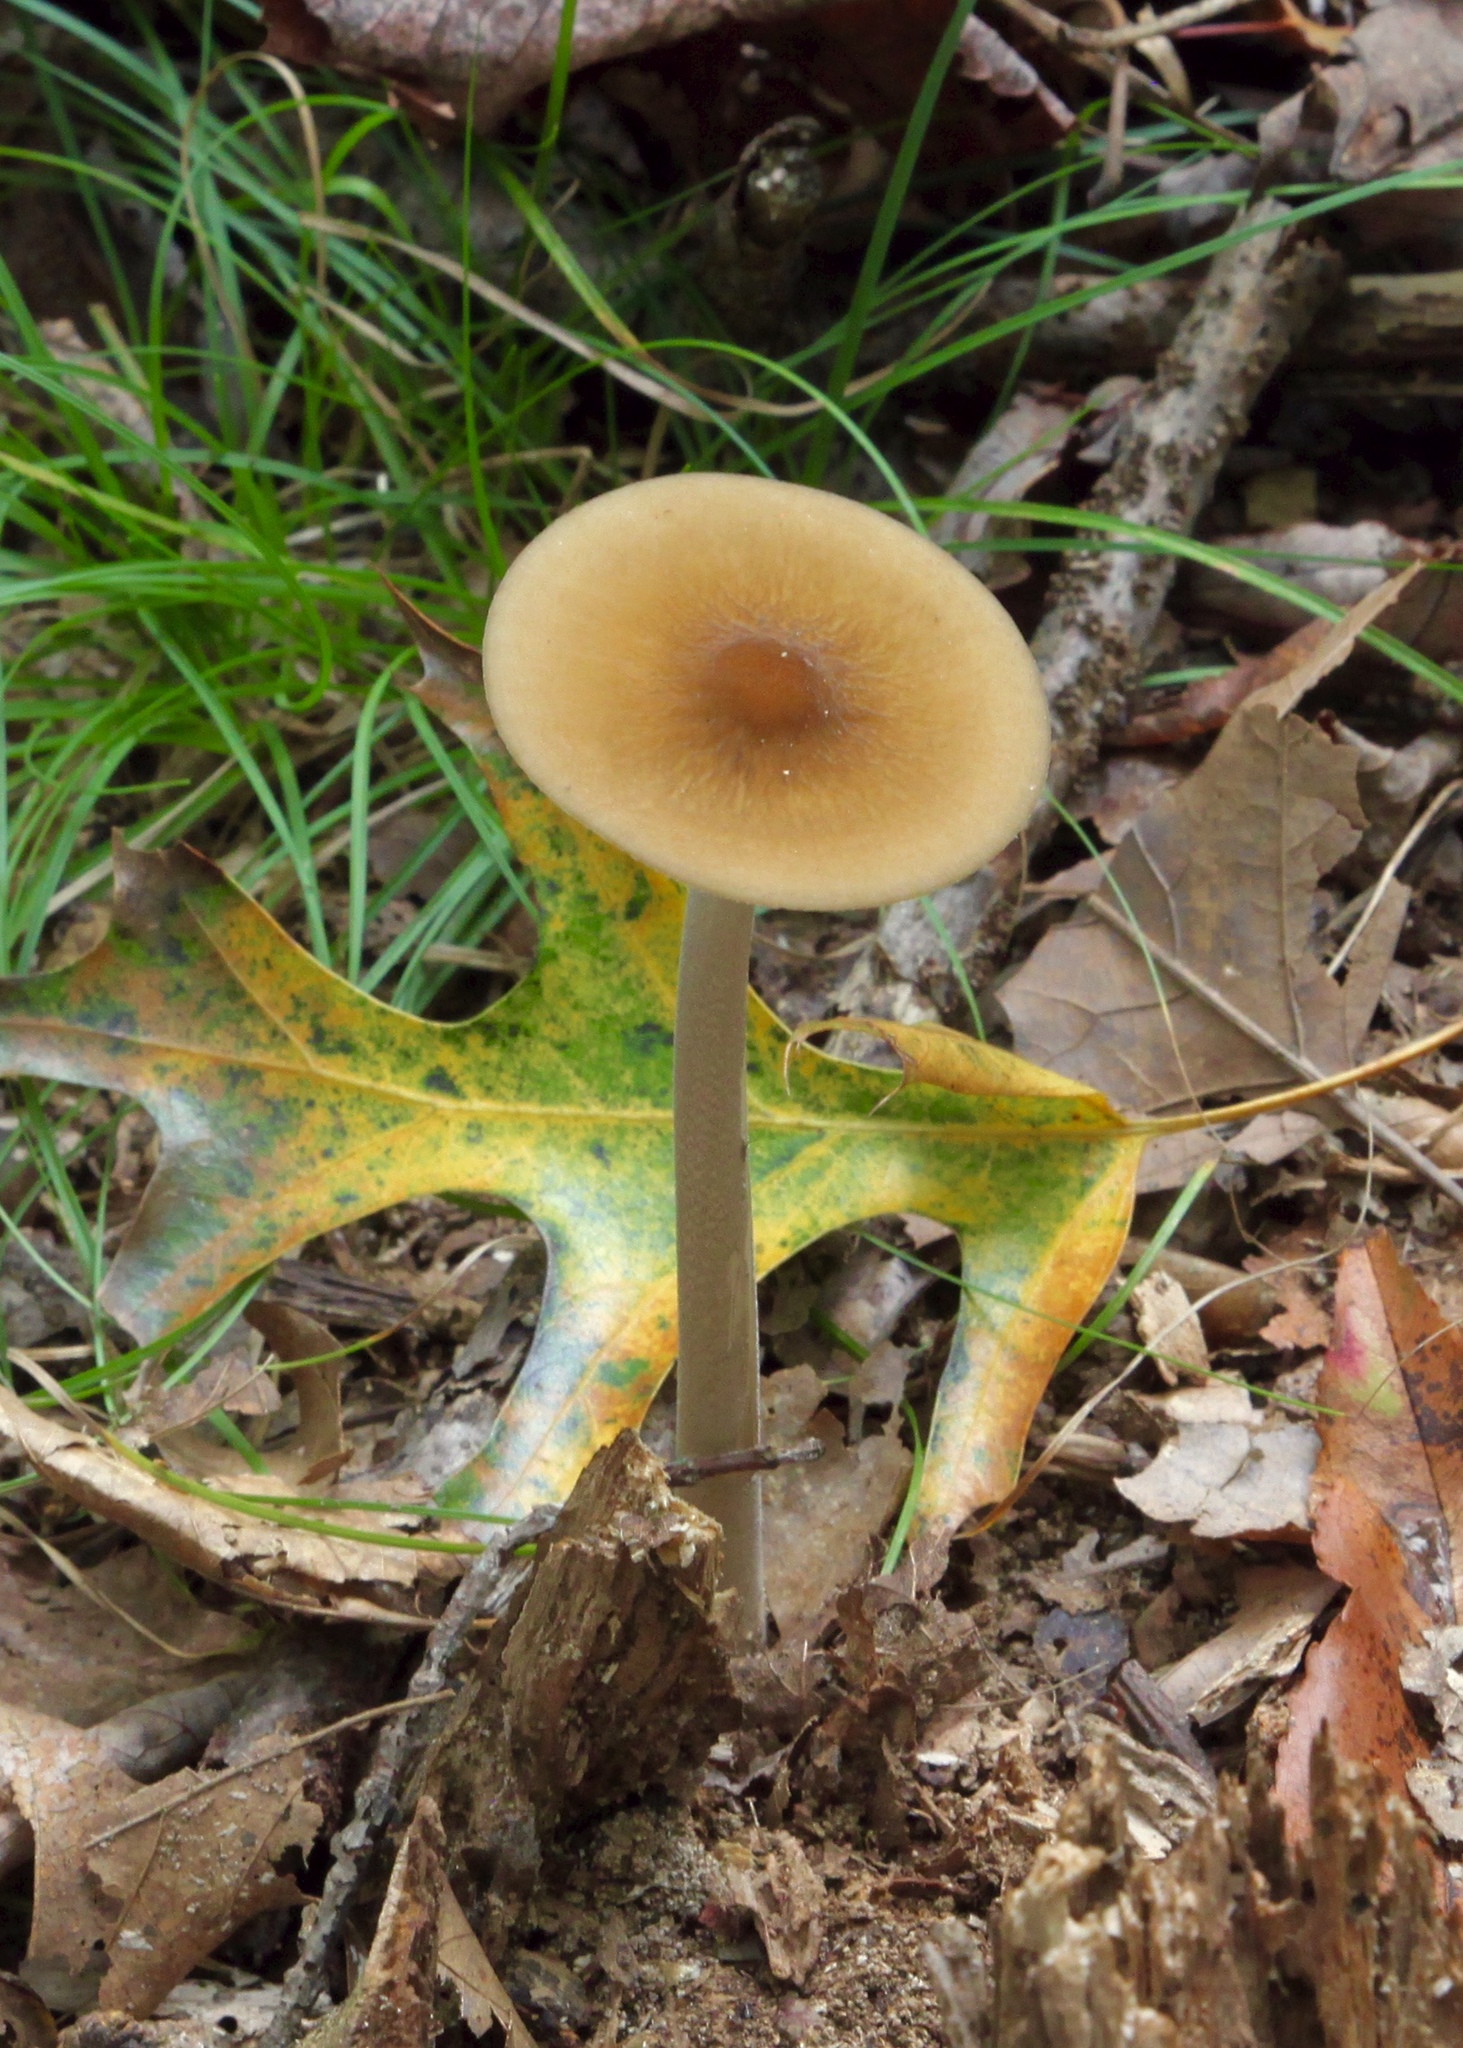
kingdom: Fungi
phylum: Basidiomycota
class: Agaricomycetes
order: Agaricales
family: Physalacriaceae
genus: Hymenopellis
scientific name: Hymenopellis furfuracea
